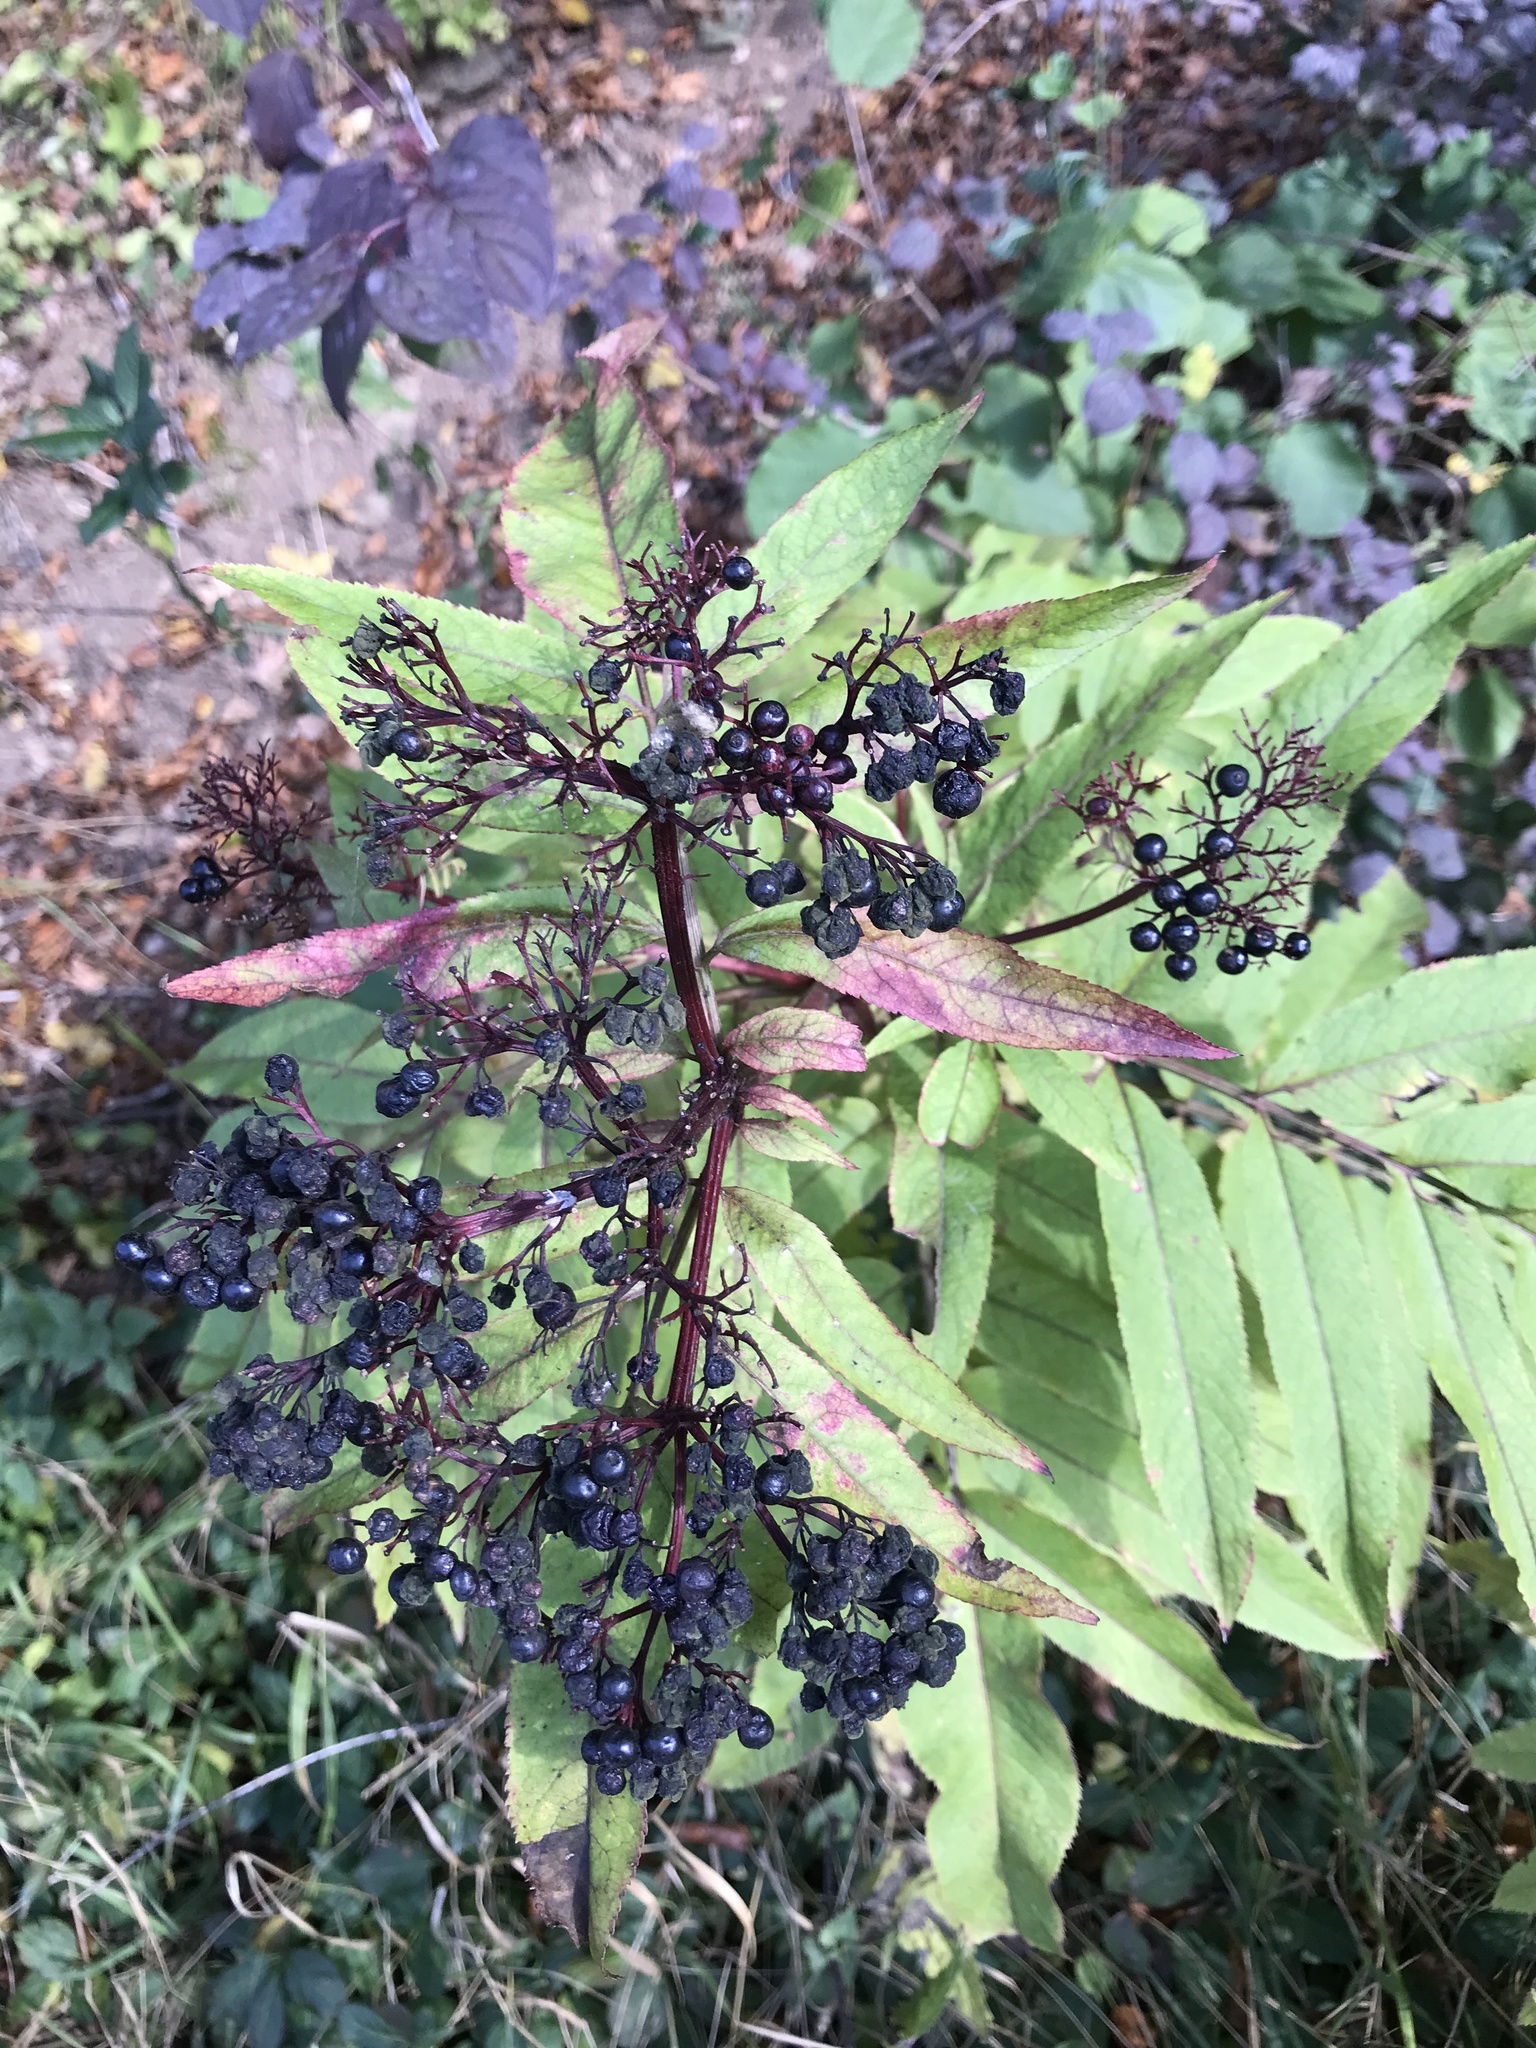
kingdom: Plantae
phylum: Tracheophyta
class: Magnoliopsida
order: Dipsacales
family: Viburnaceae
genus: Sambucus
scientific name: Sambucus ebulus
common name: Dwarf elder
